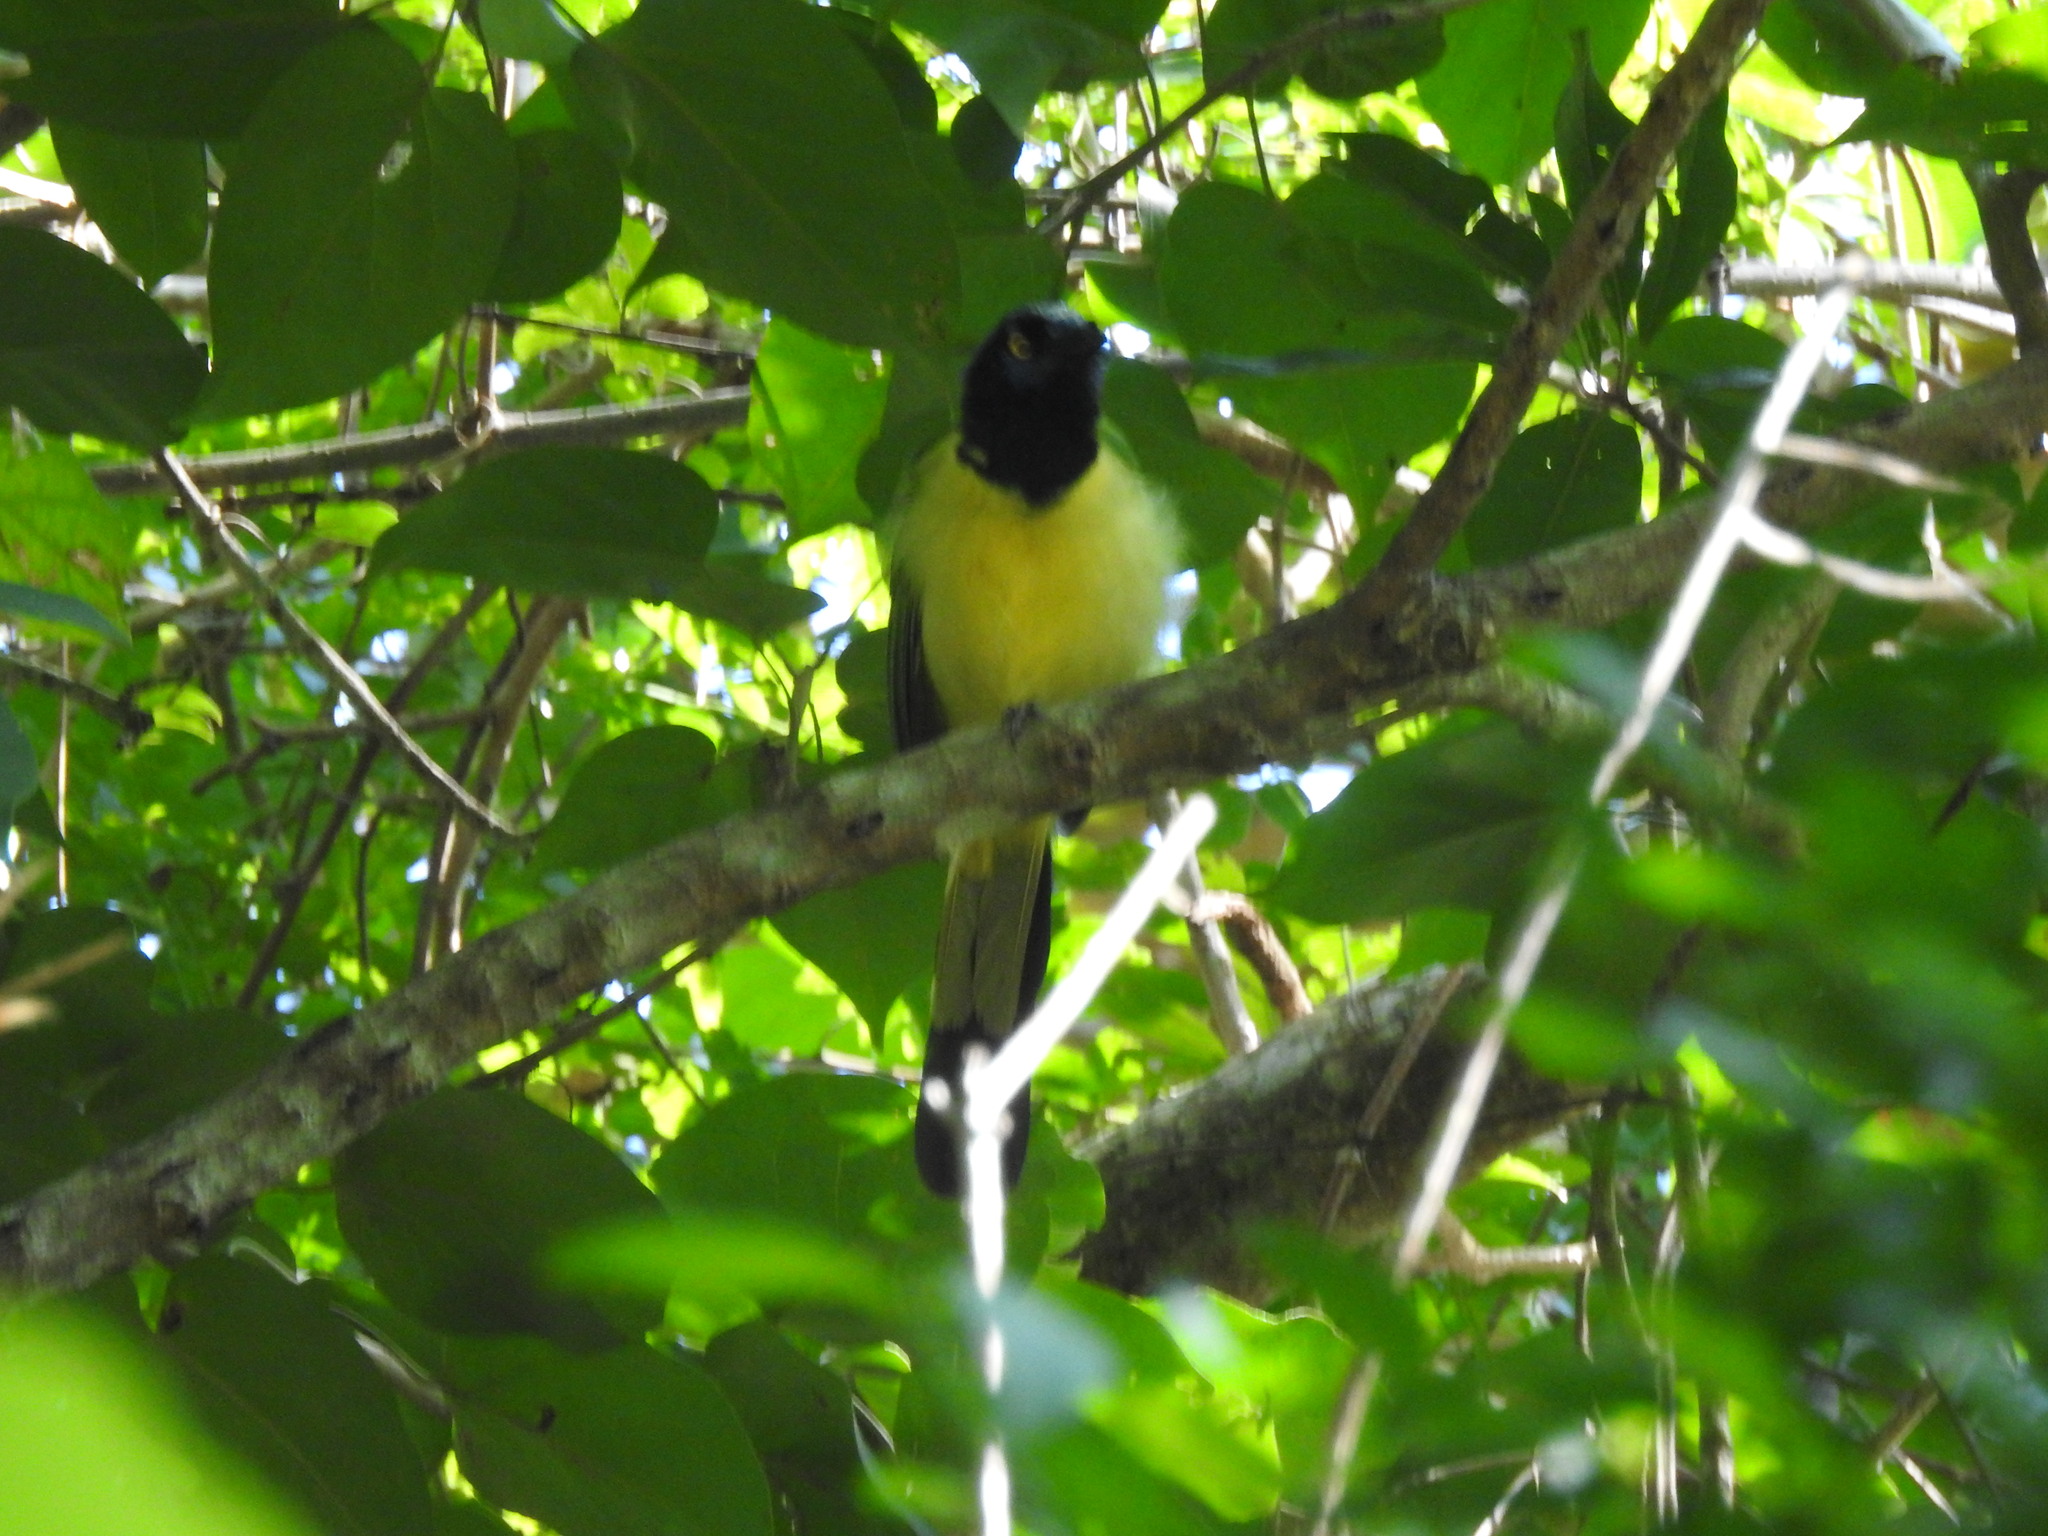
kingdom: Animalia
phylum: Chordata
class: Aves
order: Passeriformes
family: Corvidae
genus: Cyanocorax
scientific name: Cyanocorax yncas
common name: Green jay
